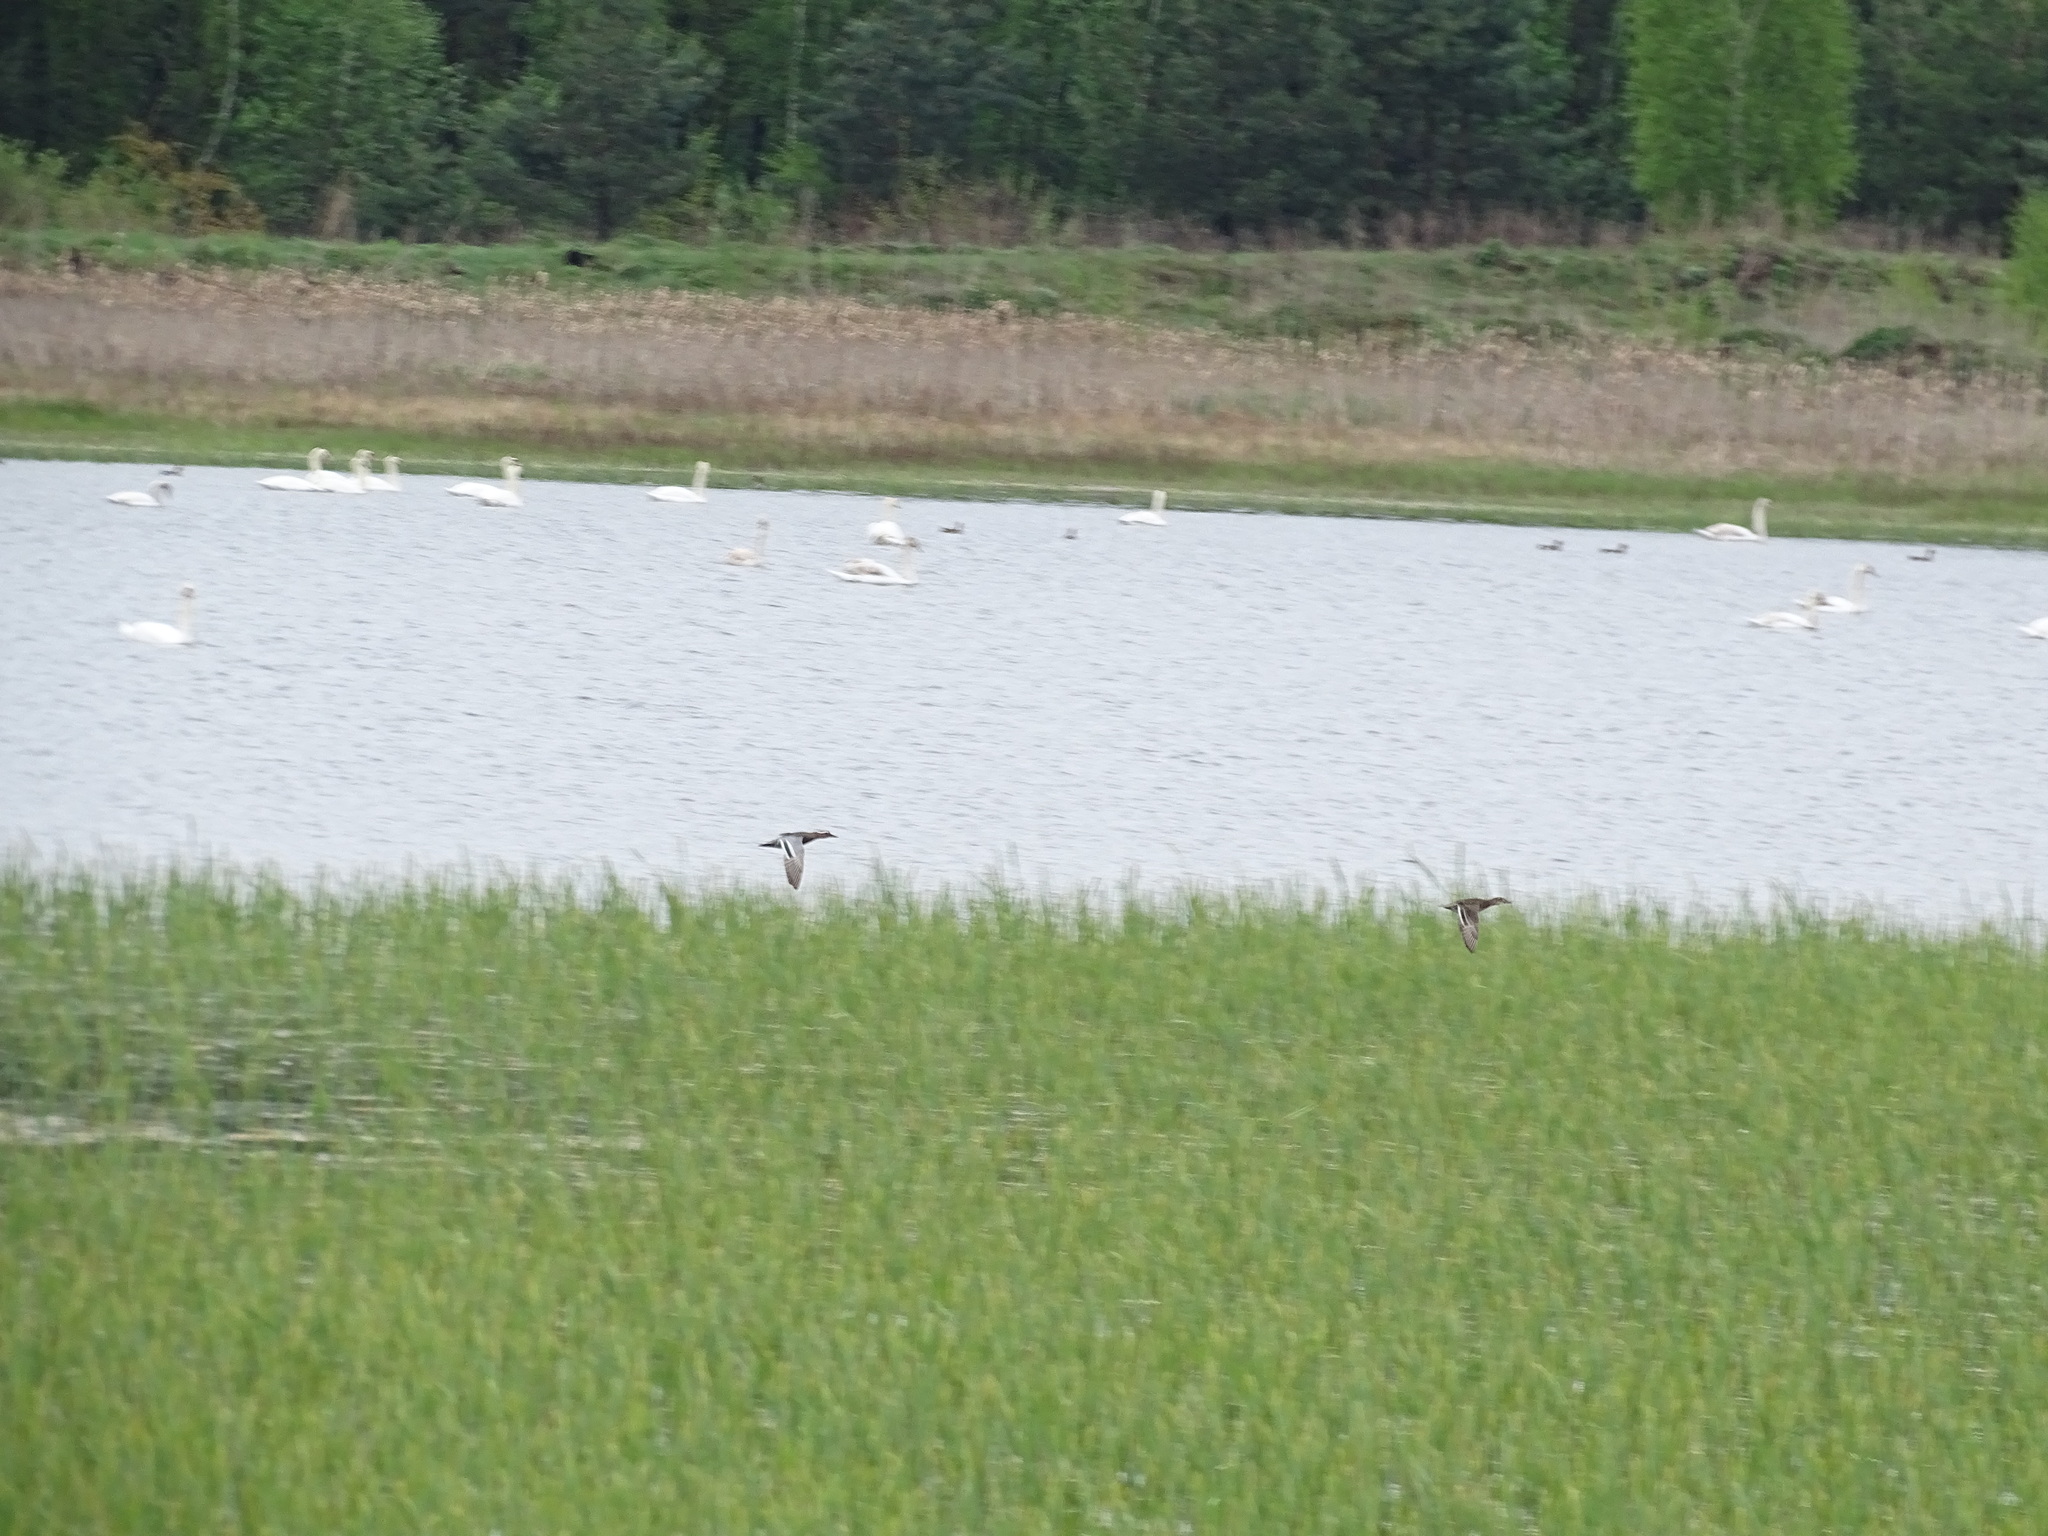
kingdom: Animalia
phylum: Chordata
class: Aves
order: Anseriformes
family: Anatidae
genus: Spatula
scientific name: Spatula querquedula
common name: Garganey
